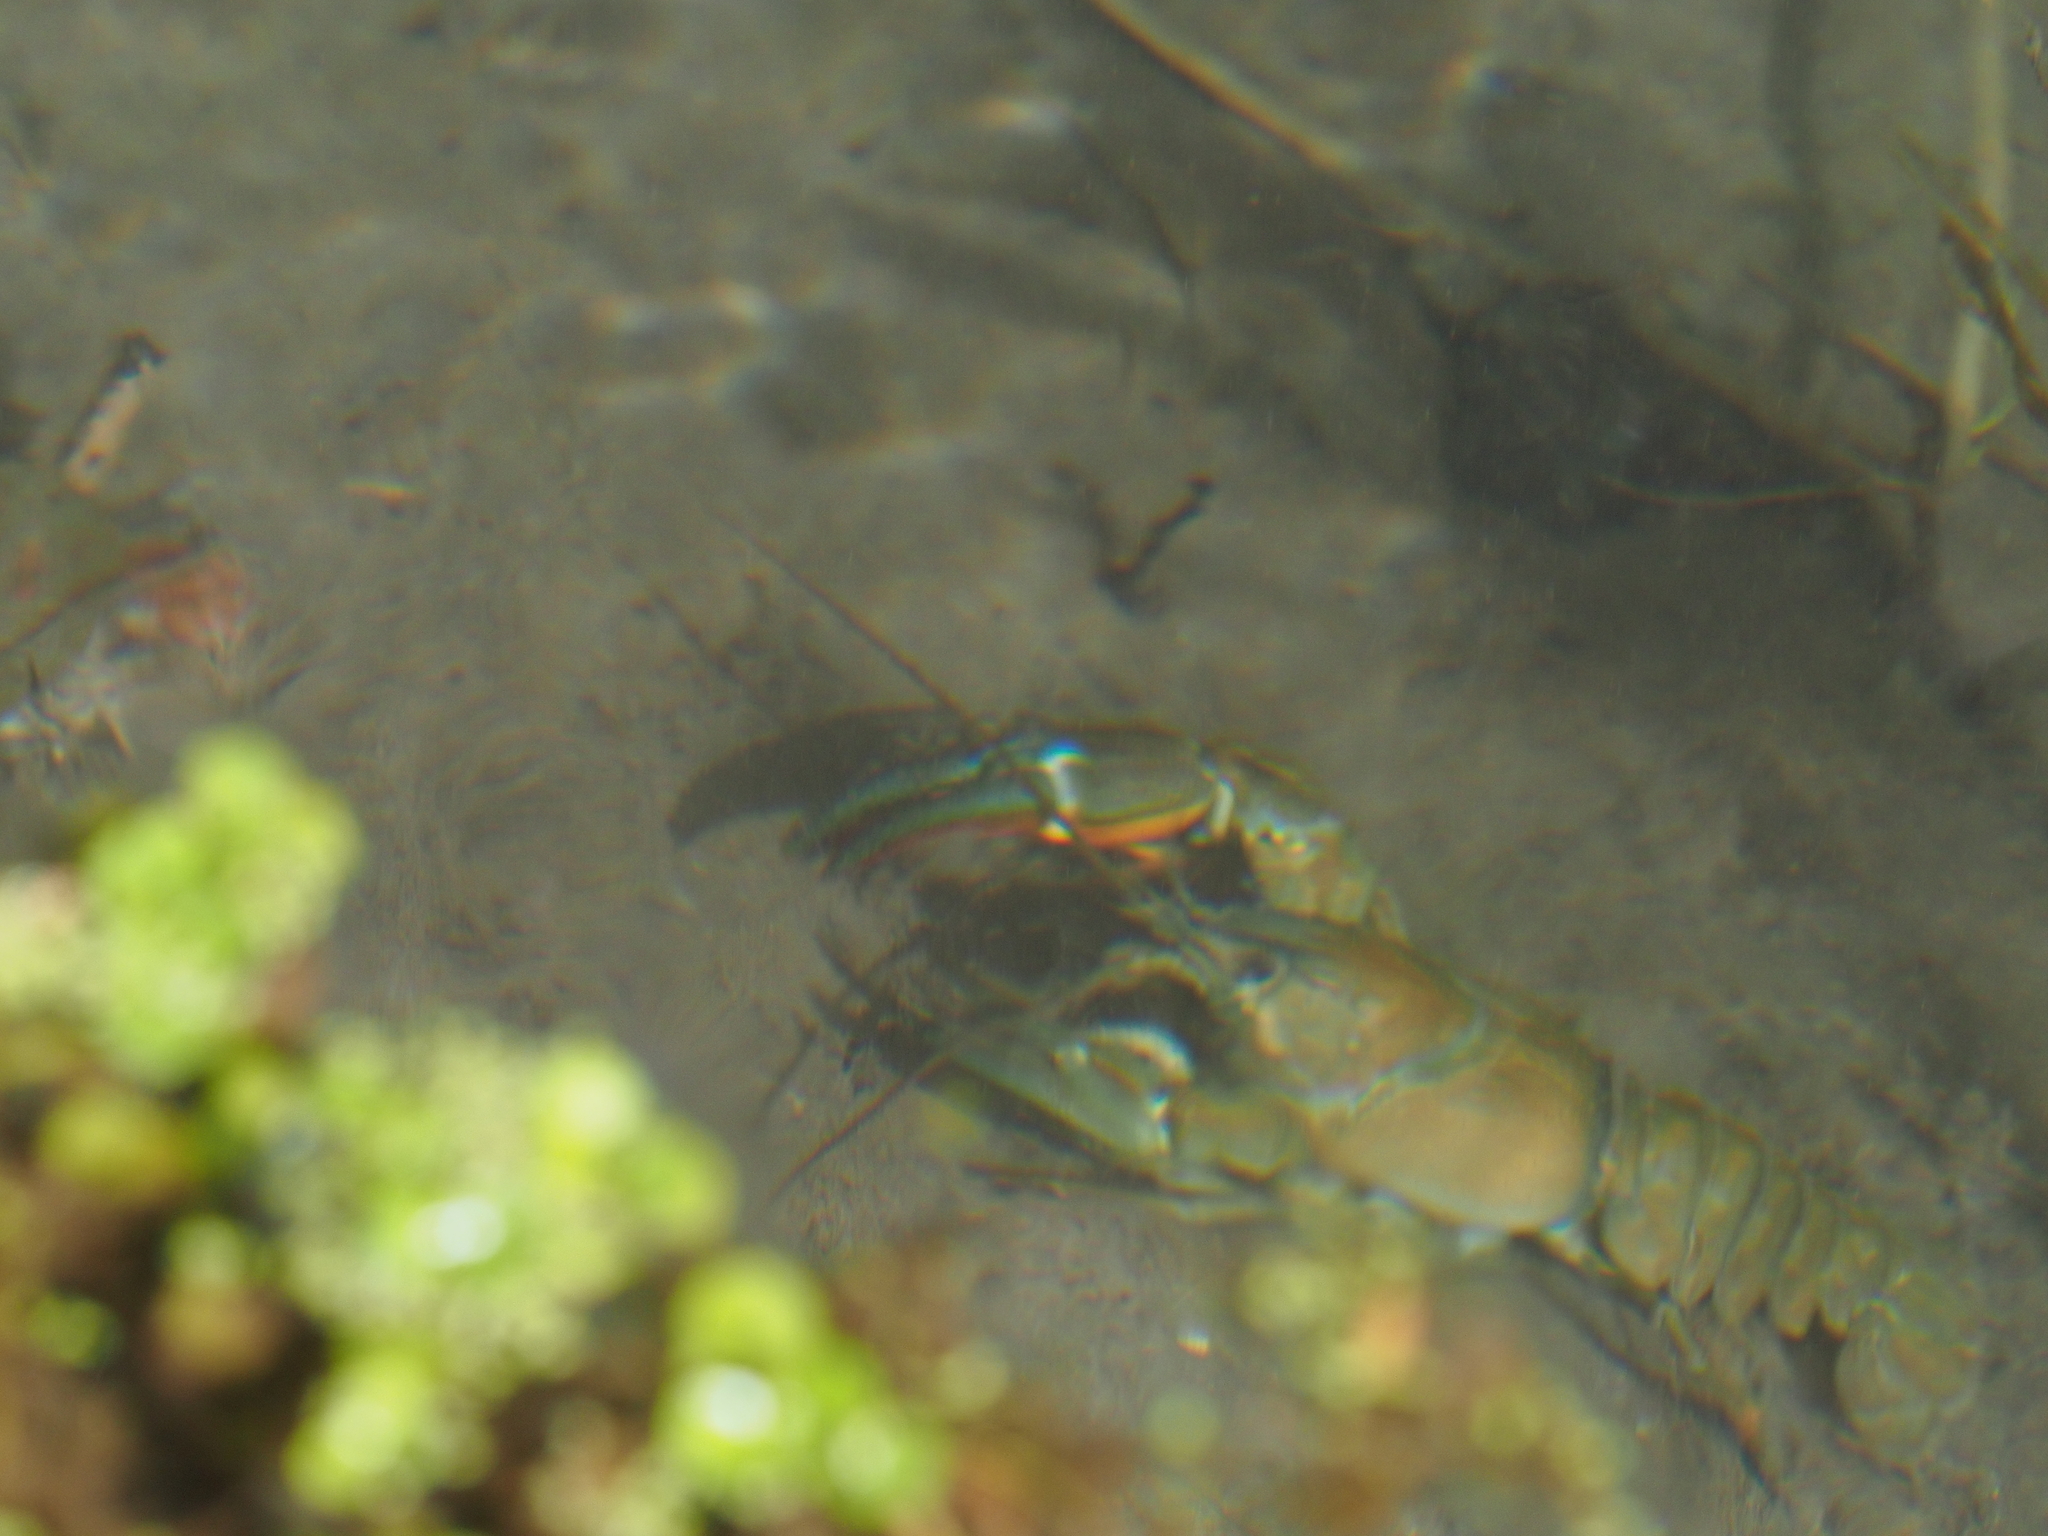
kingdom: Animalia
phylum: Arthropoda
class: Malacostraca
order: Decapoda
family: Astacidae
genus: Pacifastacus
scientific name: Pacifastacus leniusculus
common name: Signal crayfish
